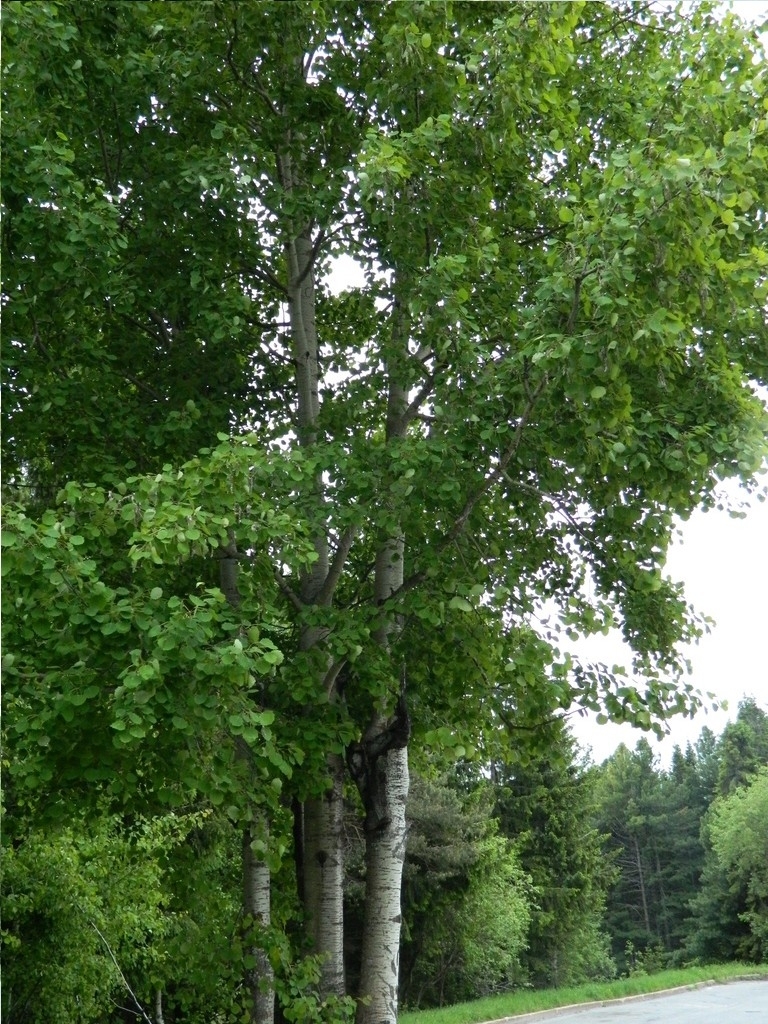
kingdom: Plantae
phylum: Tracheophyta
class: Magnoliopsida
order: Malpighiales
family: Salicaceae
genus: Populus
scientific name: Populus tremula
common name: European aspen
